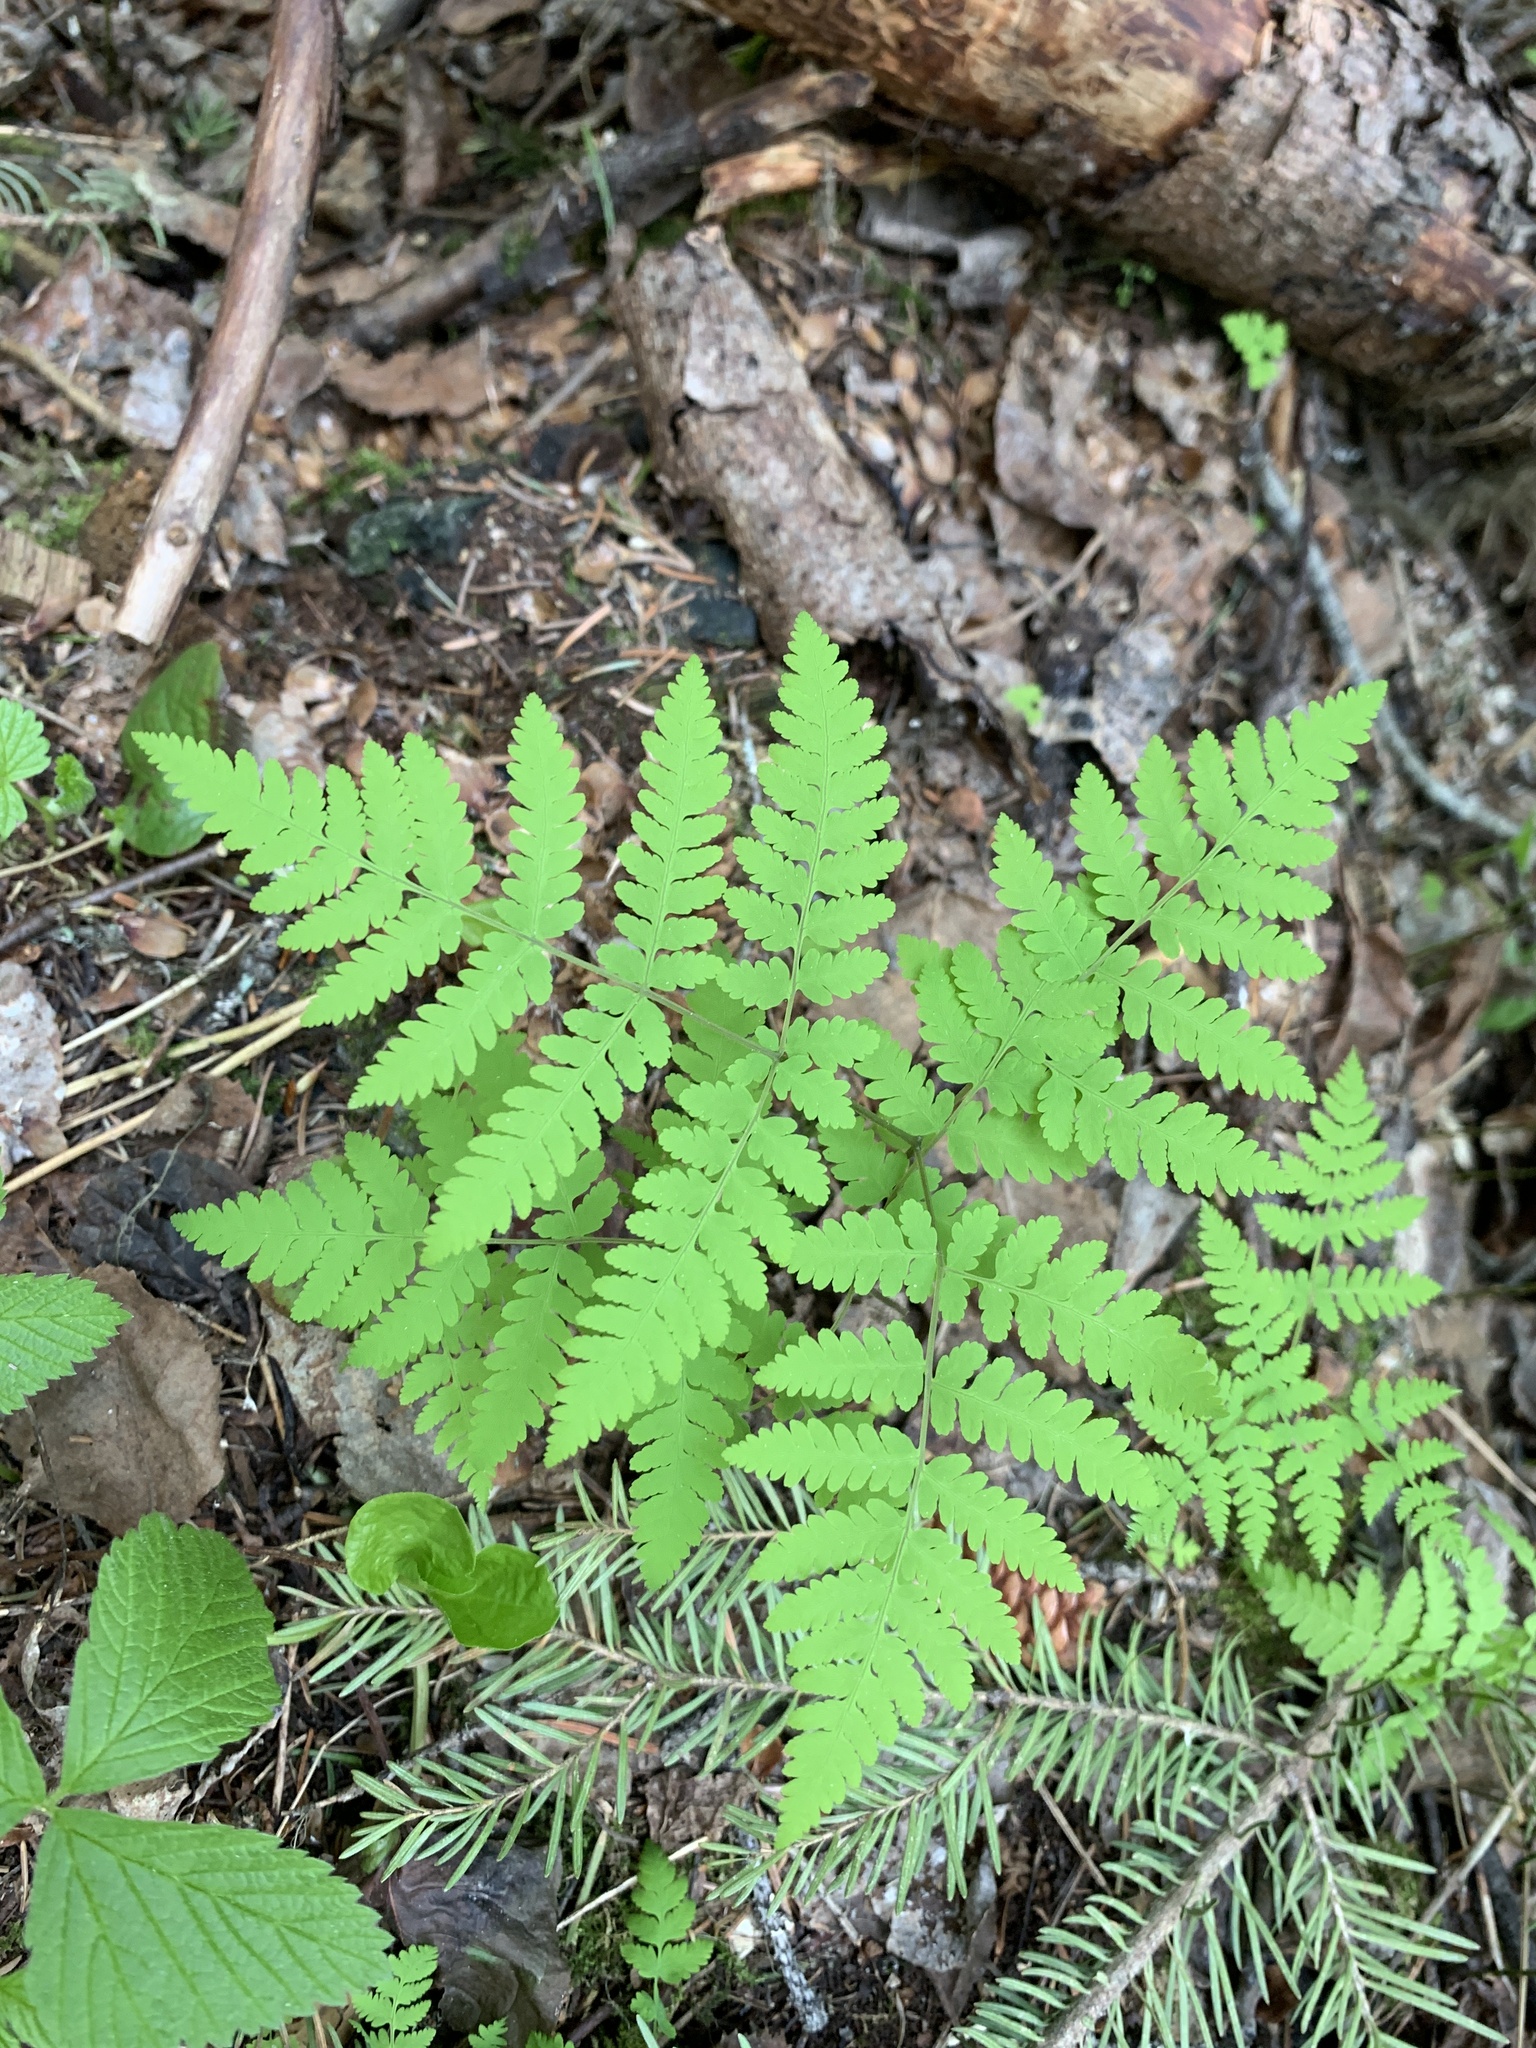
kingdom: Plantae
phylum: Tracheophyta
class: Polypodiopsida
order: Polypodiales
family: Cystopteridaceae
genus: Gymnocarpium
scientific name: Gymnocarpium disjunctum
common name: Western oak fern
